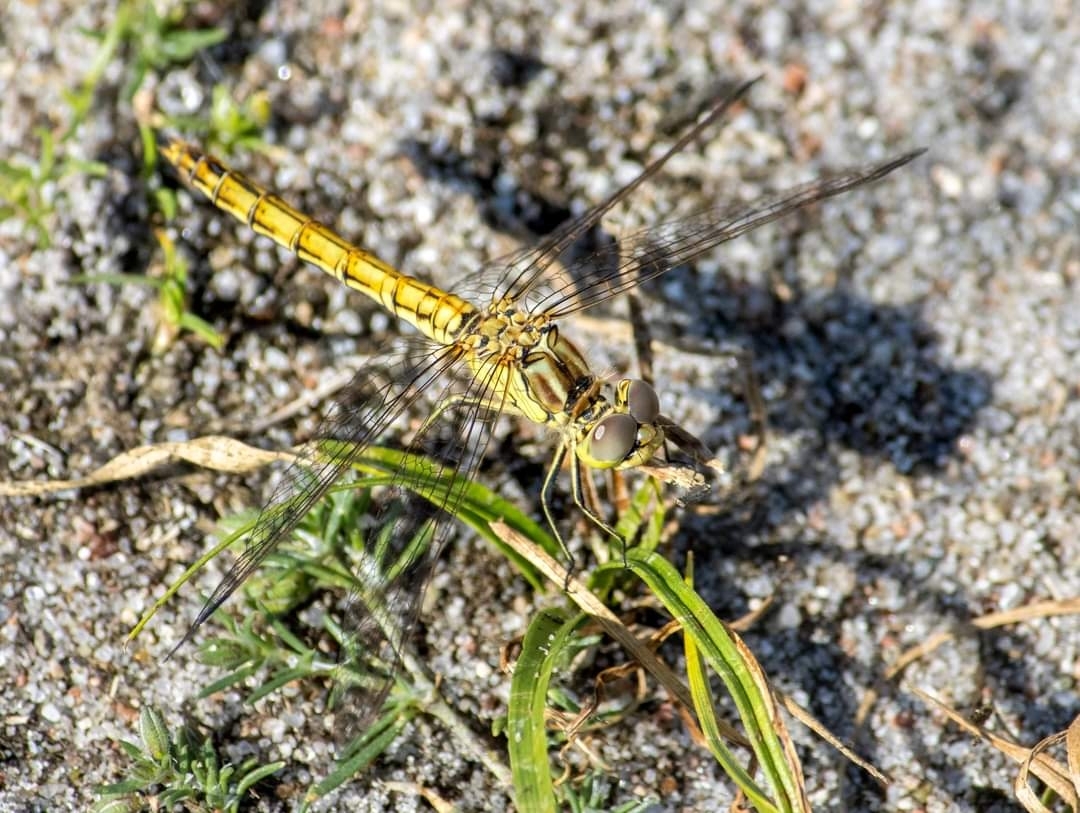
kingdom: Animalia
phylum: Arthropoda
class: Insecta
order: Odonata
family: Libellulidae
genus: Sympetrum
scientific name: Sympetrum vulgatum
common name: Vagrant darter
